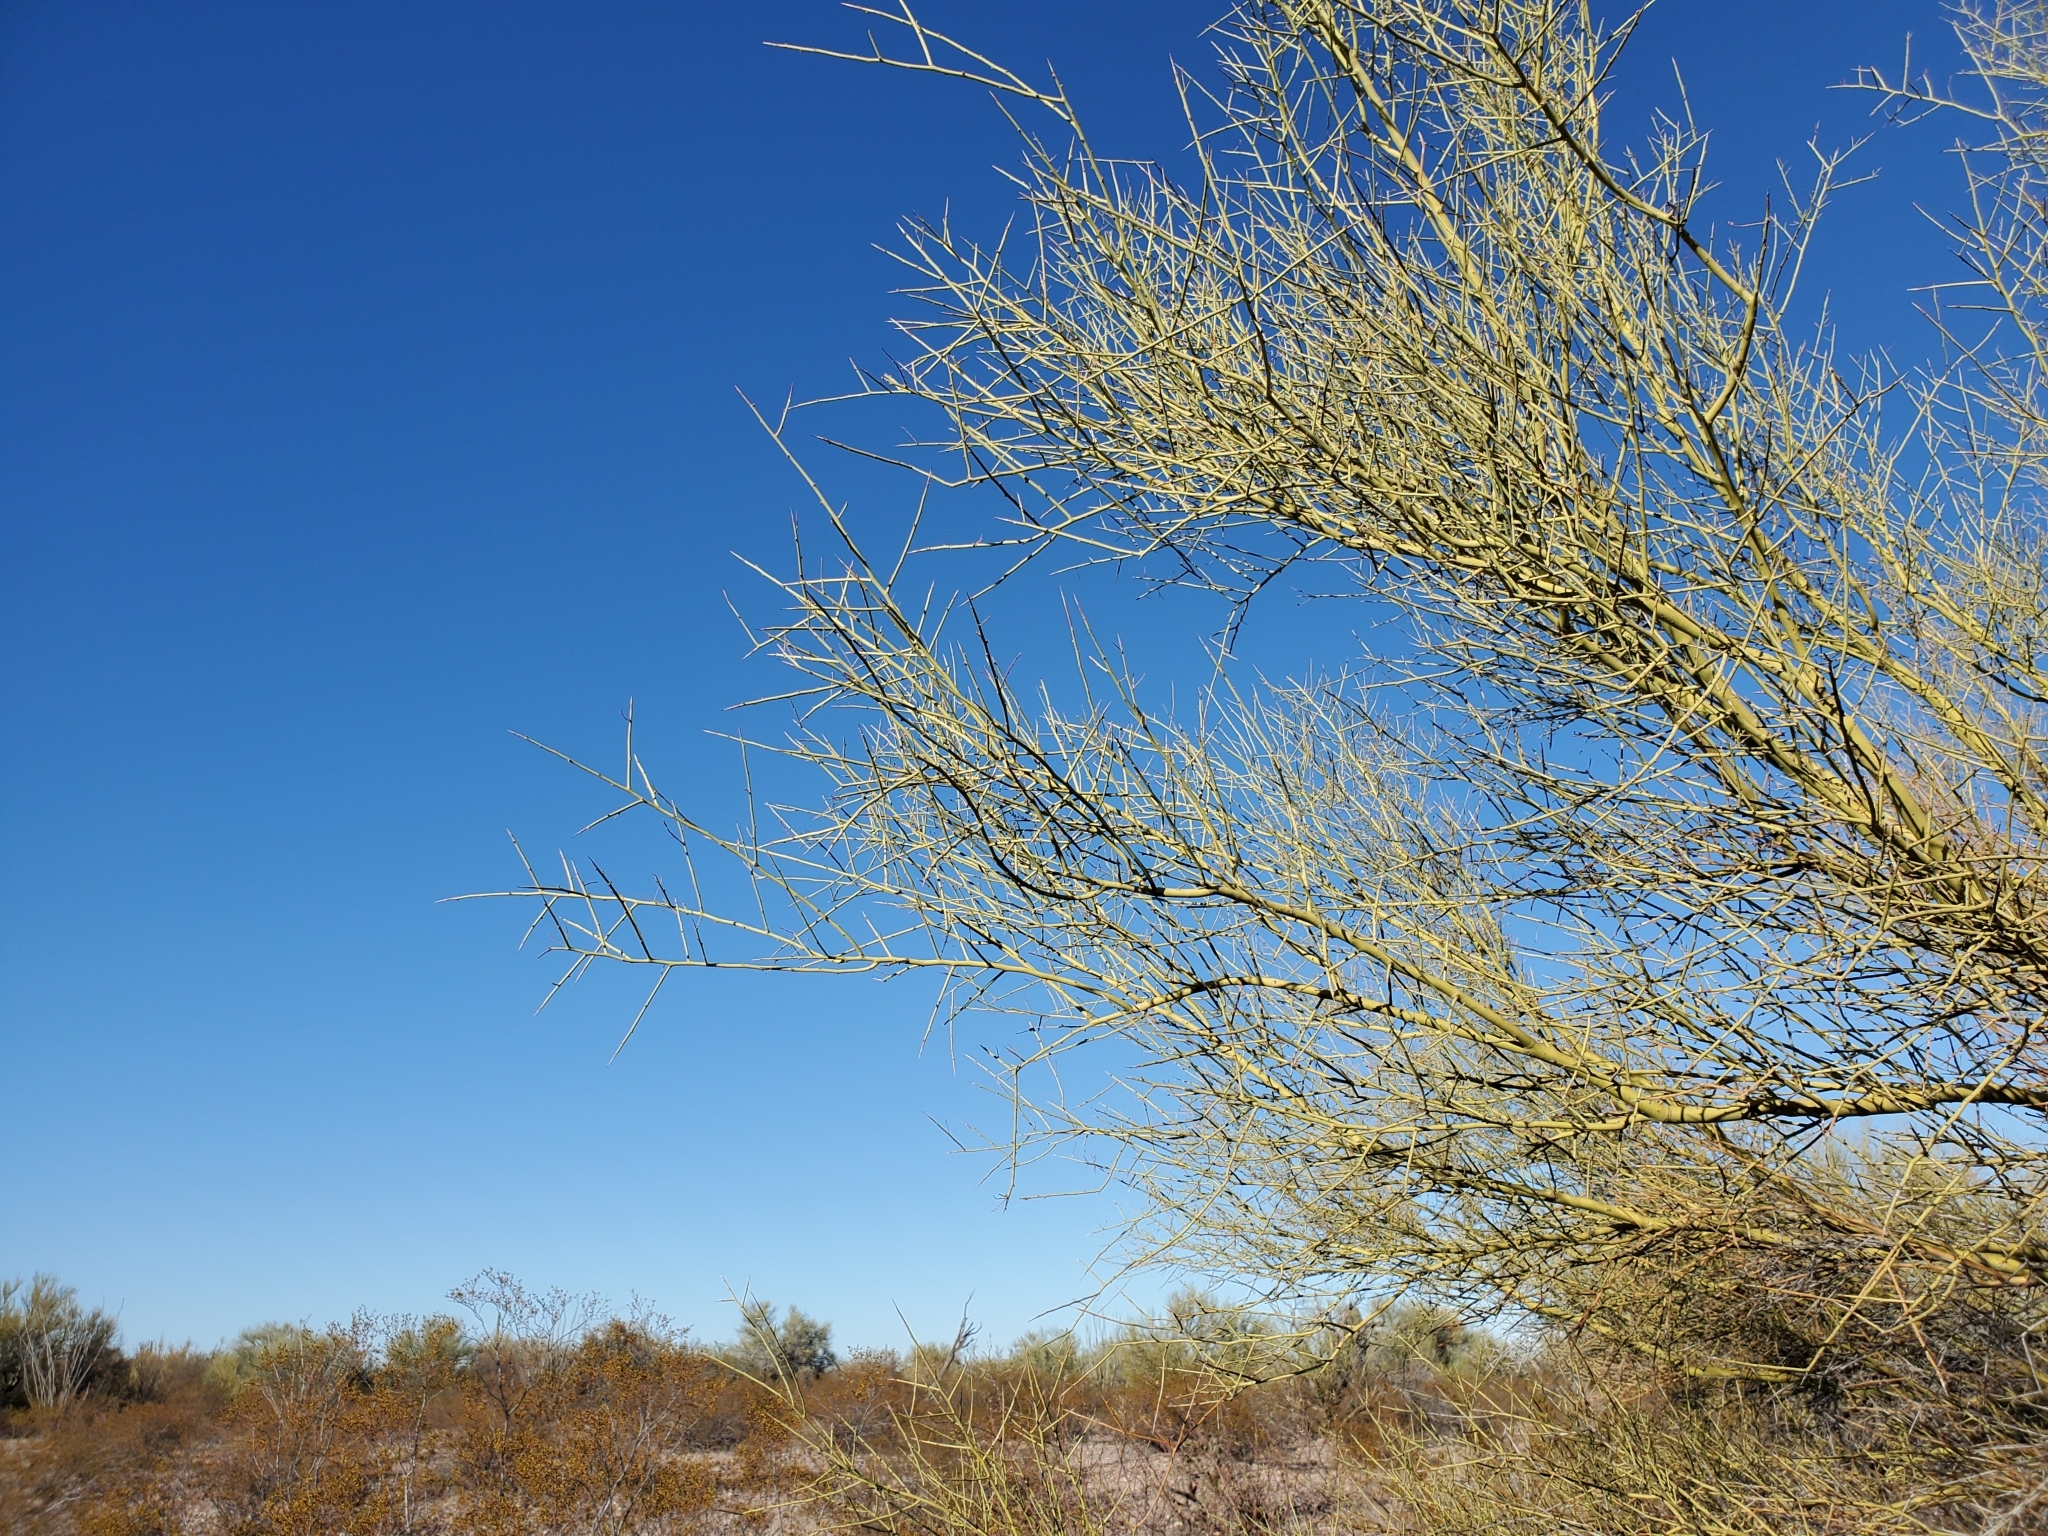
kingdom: Plantae
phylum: Tracheophyta
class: Magnoliopsida
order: Fabales
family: Fabaceae
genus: Parkinsonia
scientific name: Parkinsonia microphylla
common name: Yellow paloverde
